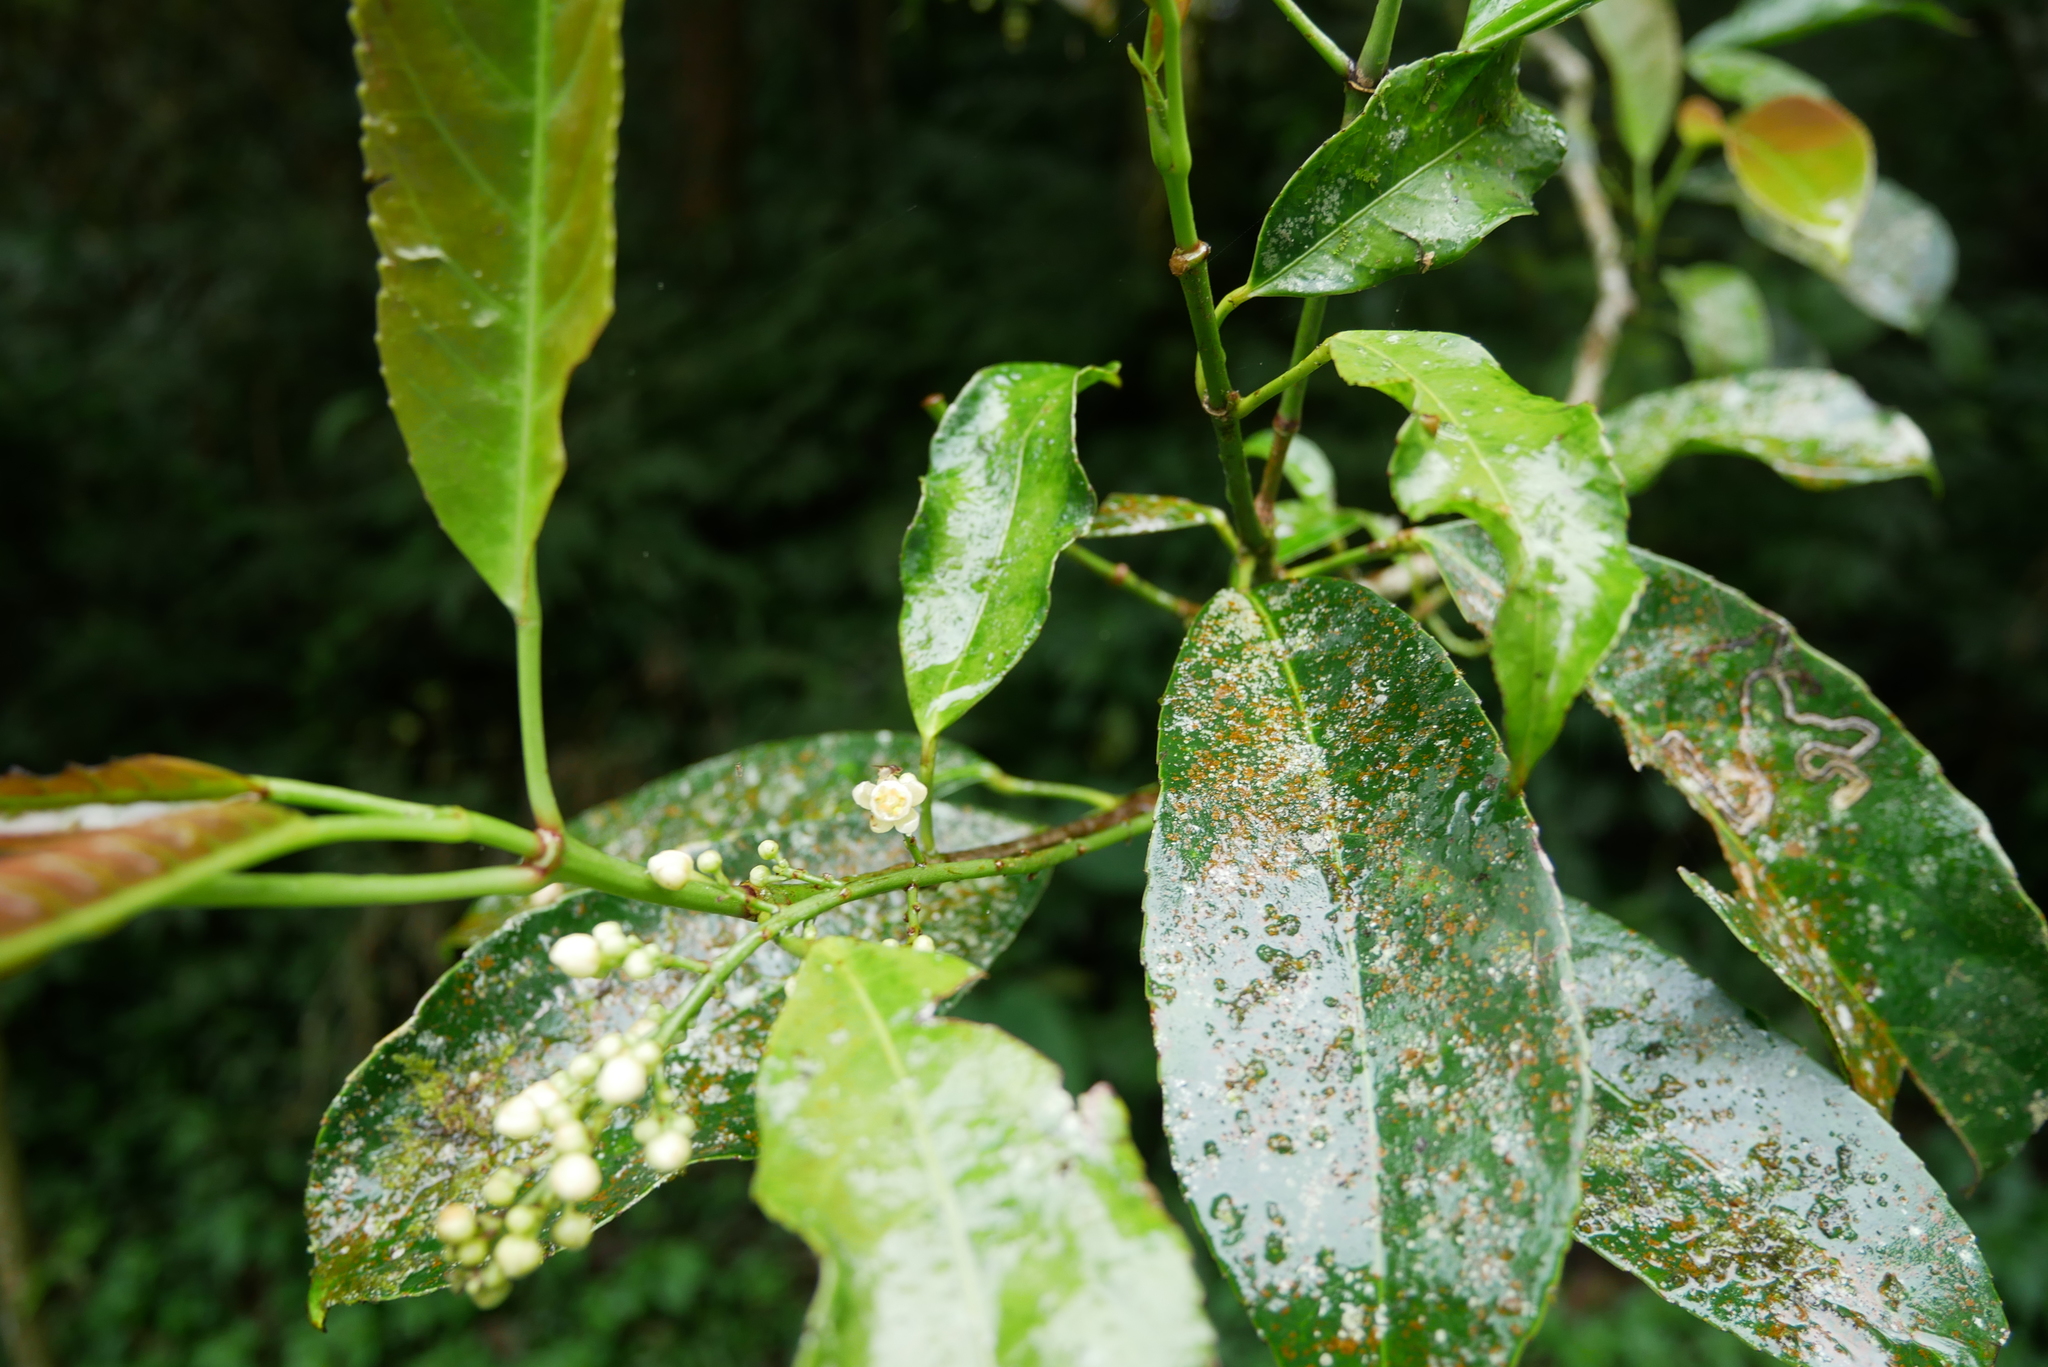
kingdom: Plantae
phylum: Tracheophyta
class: Magnoliopsida
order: Crossosomatales
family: Staphyleaceae
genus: Turpinia
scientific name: Turpinia formosana
